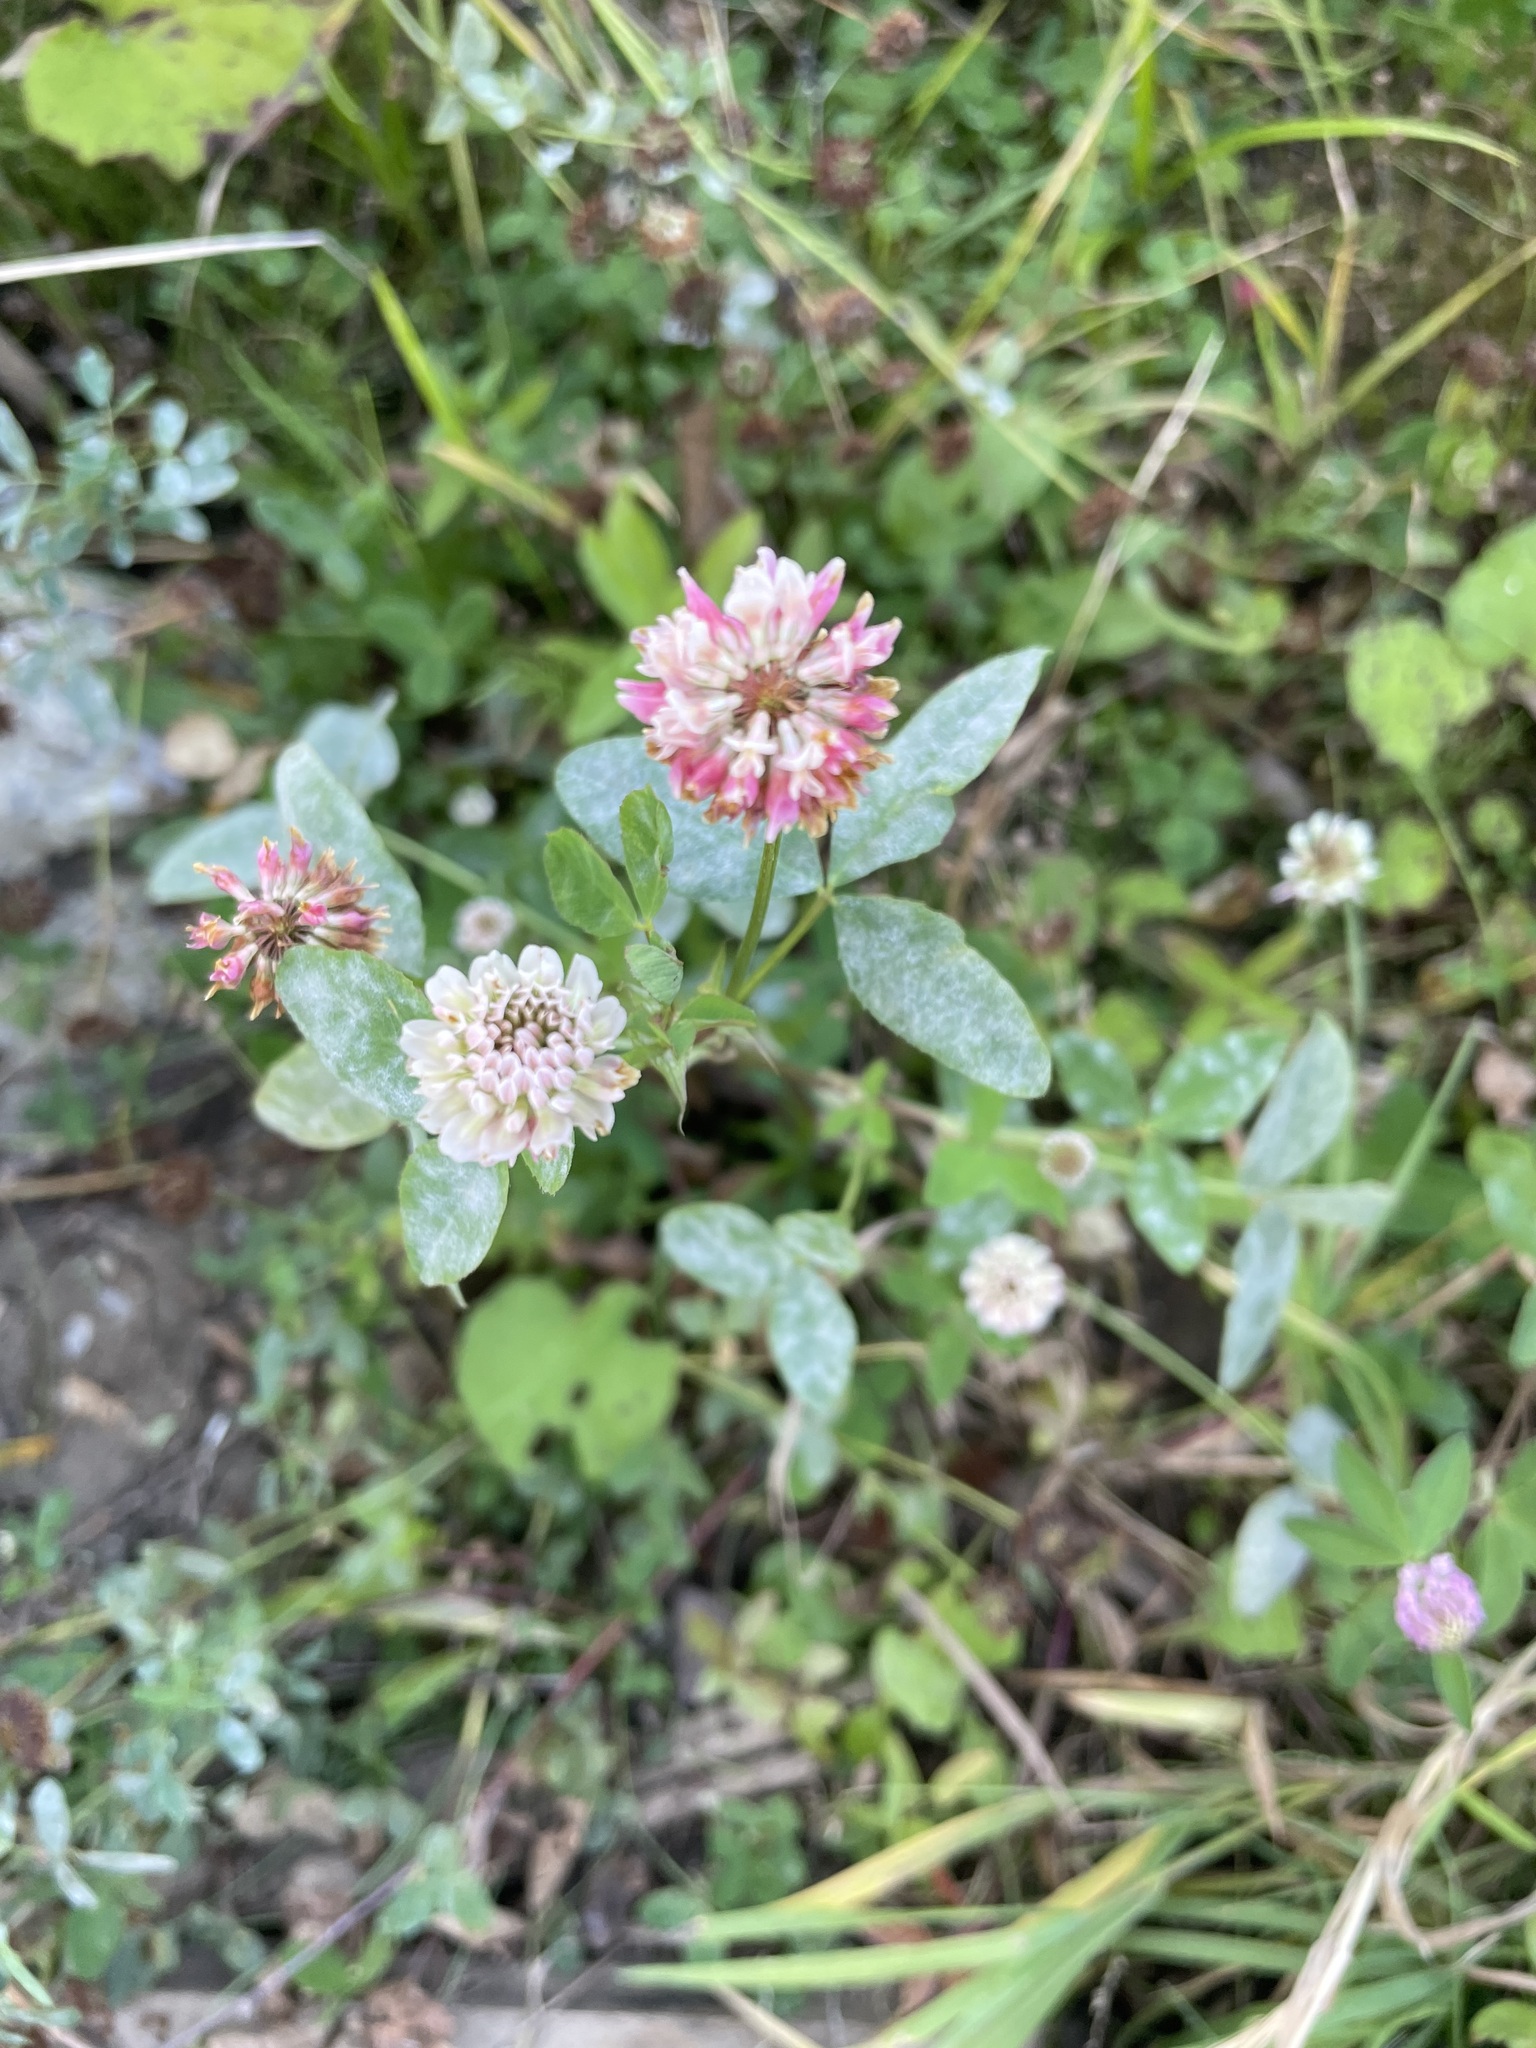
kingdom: Plantae
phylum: Tracheophyta
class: Magnoliopsida
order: Fabales
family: Fabaceae
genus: Trifolium
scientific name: Trifolium hybridum
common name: Alsike clover
